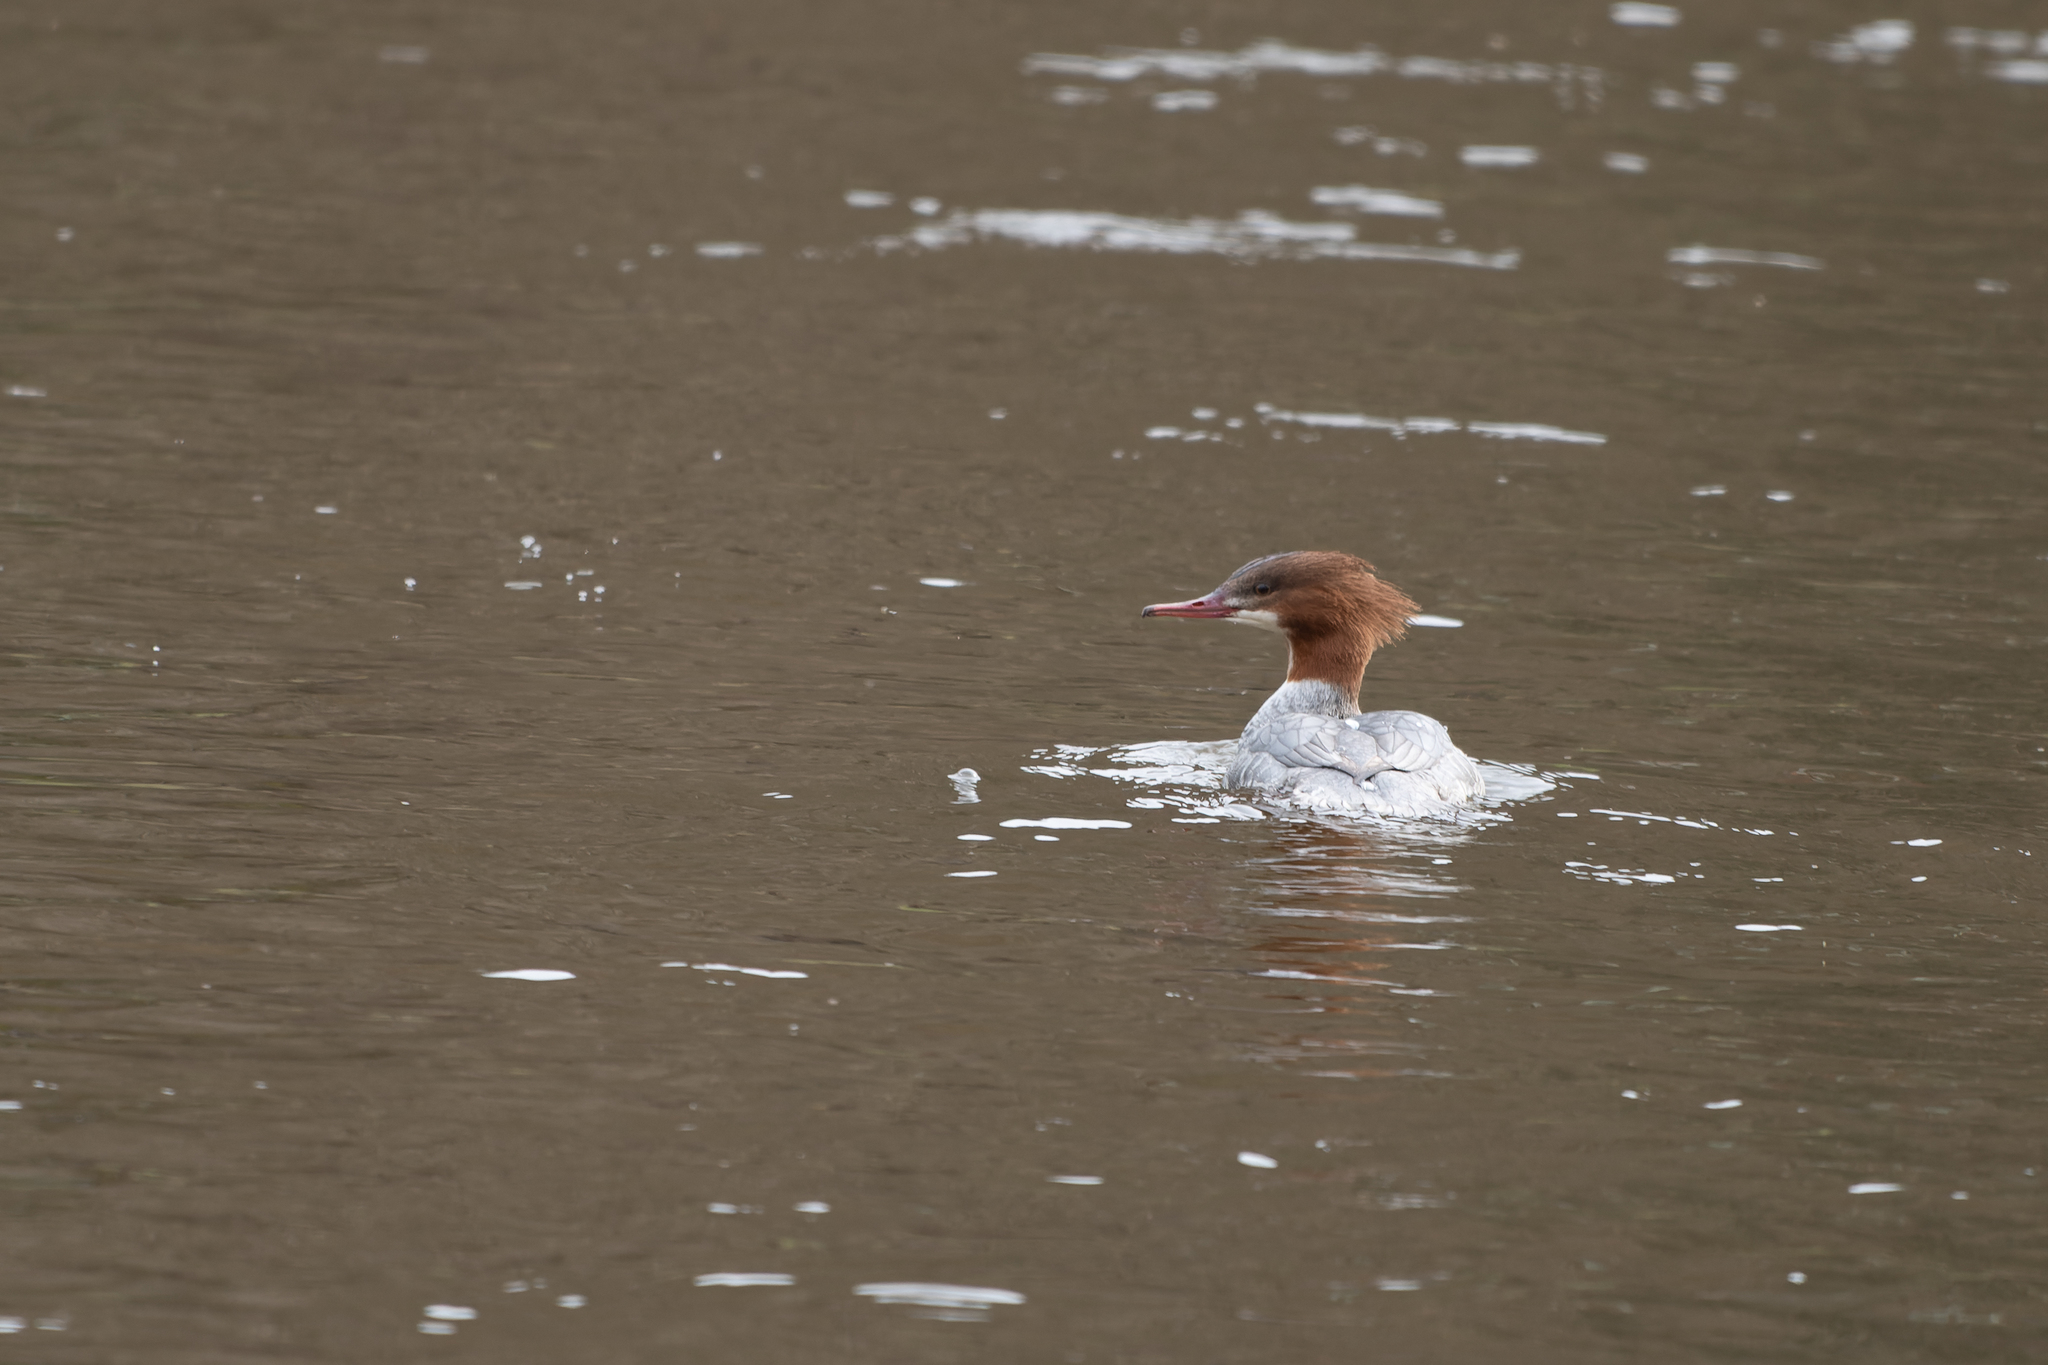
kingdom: Animalia
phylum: Chordata
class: Aves
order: Anseriformes
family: Anatidae
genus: Mergus
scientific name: Mergus merganser
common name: Common merganser
